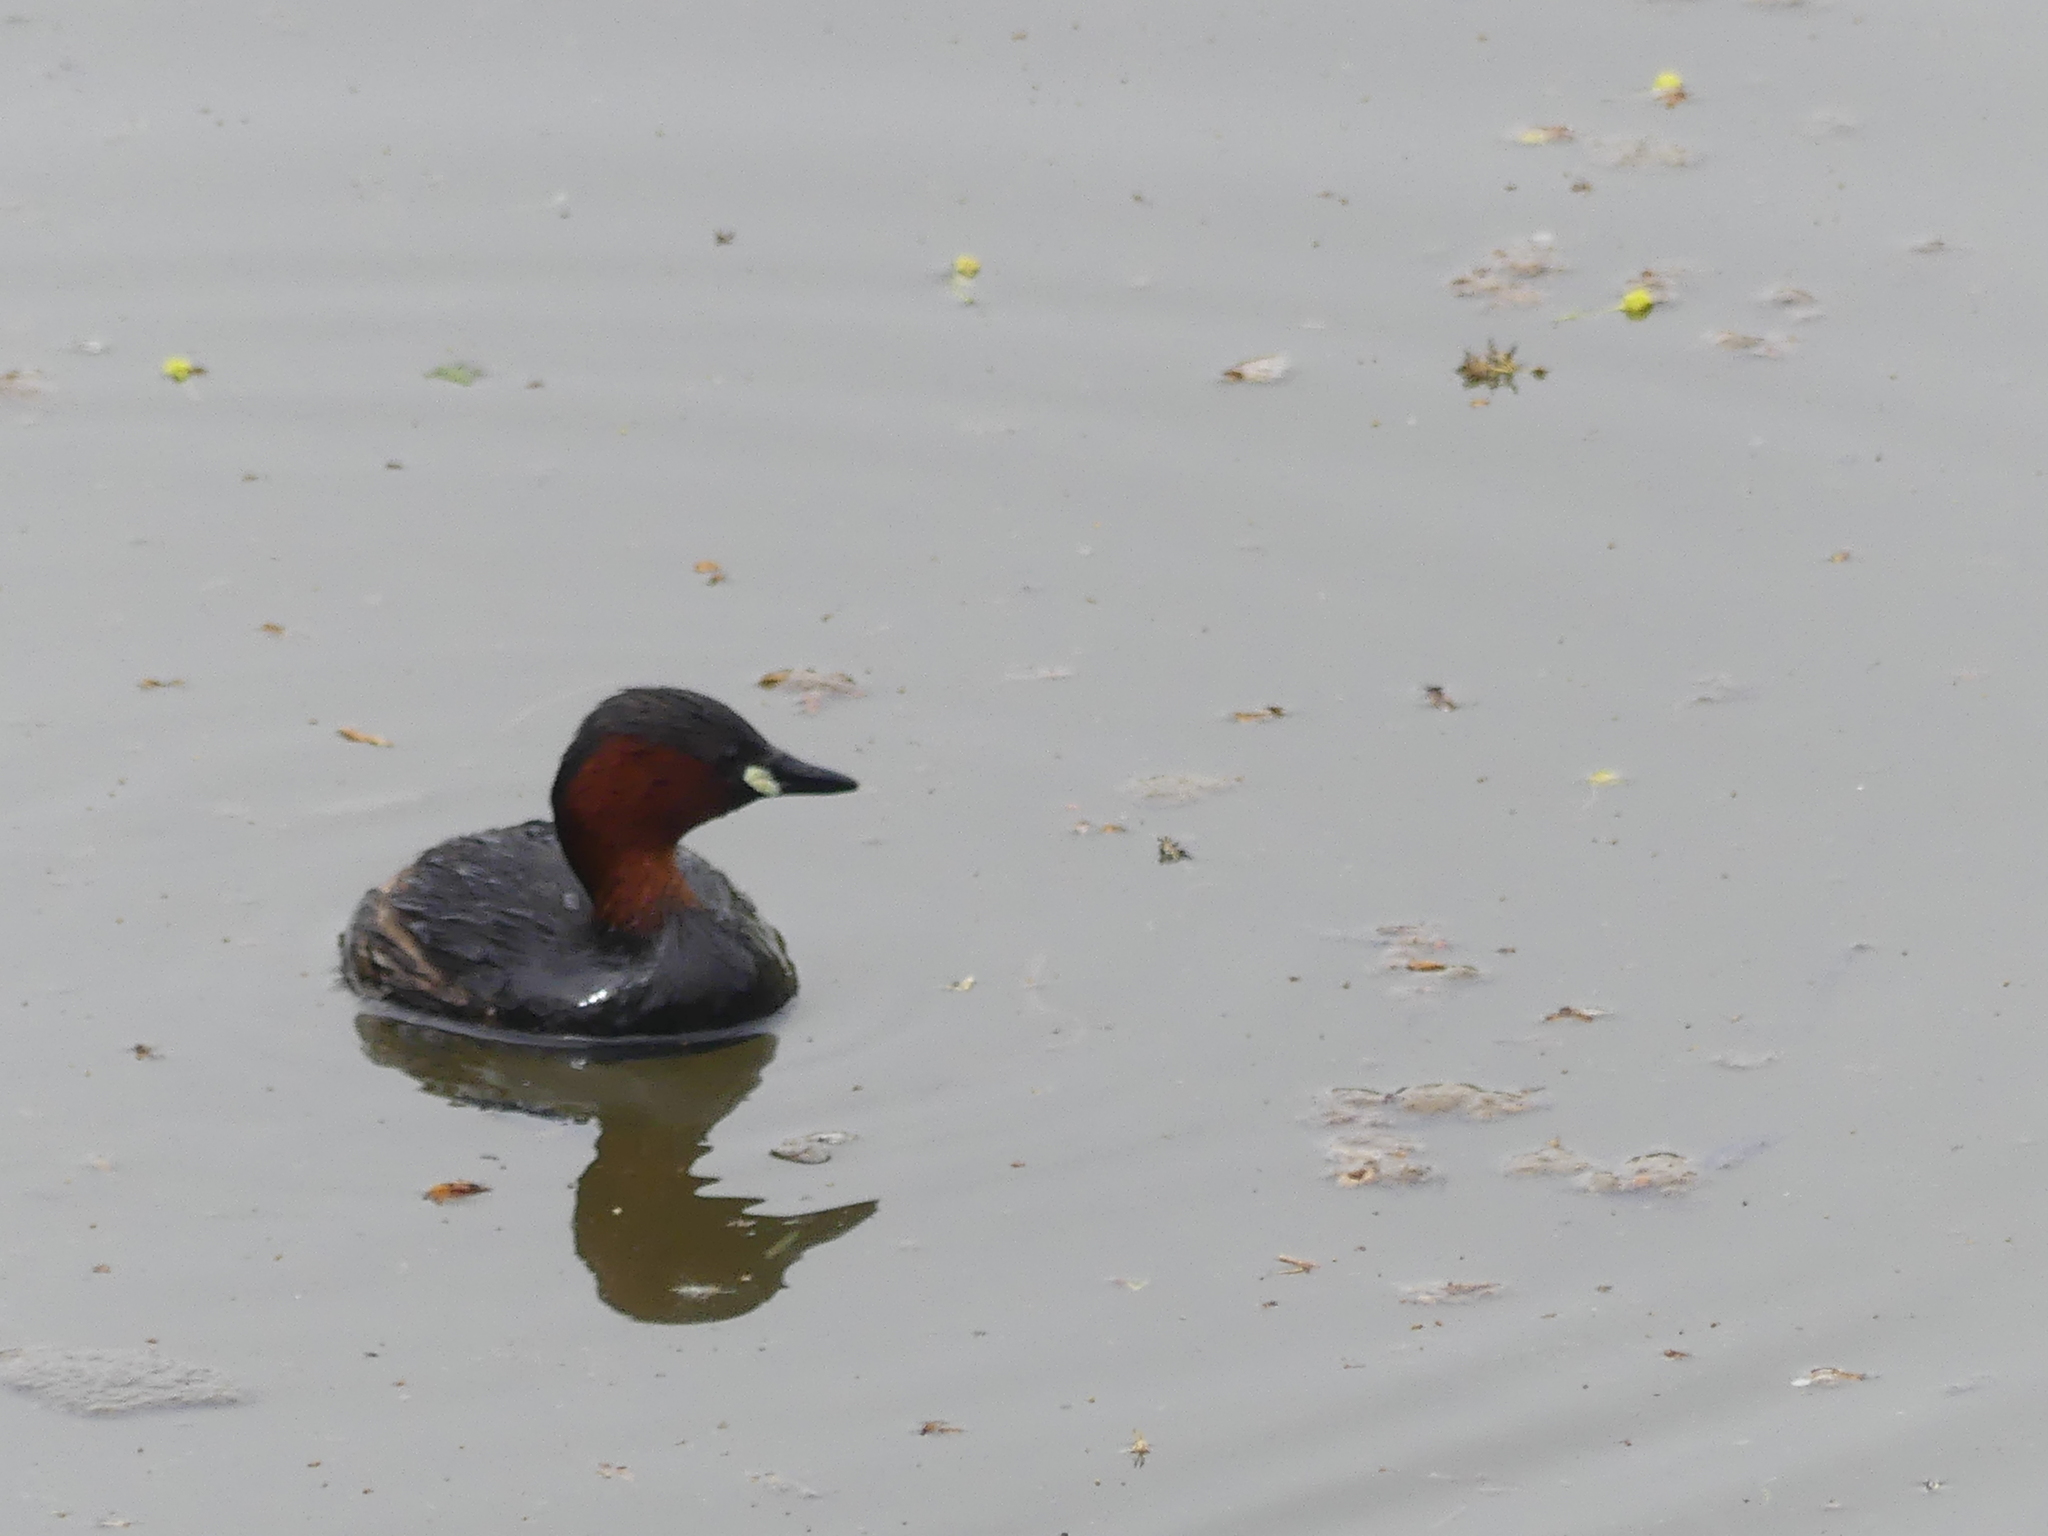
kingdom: Animalia
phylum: Chordata
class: Aves
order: Podicipediformes
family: Podicipedidae
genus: Tachybaptus
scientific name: Tachybaptus ruficollis
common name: Little grebe
